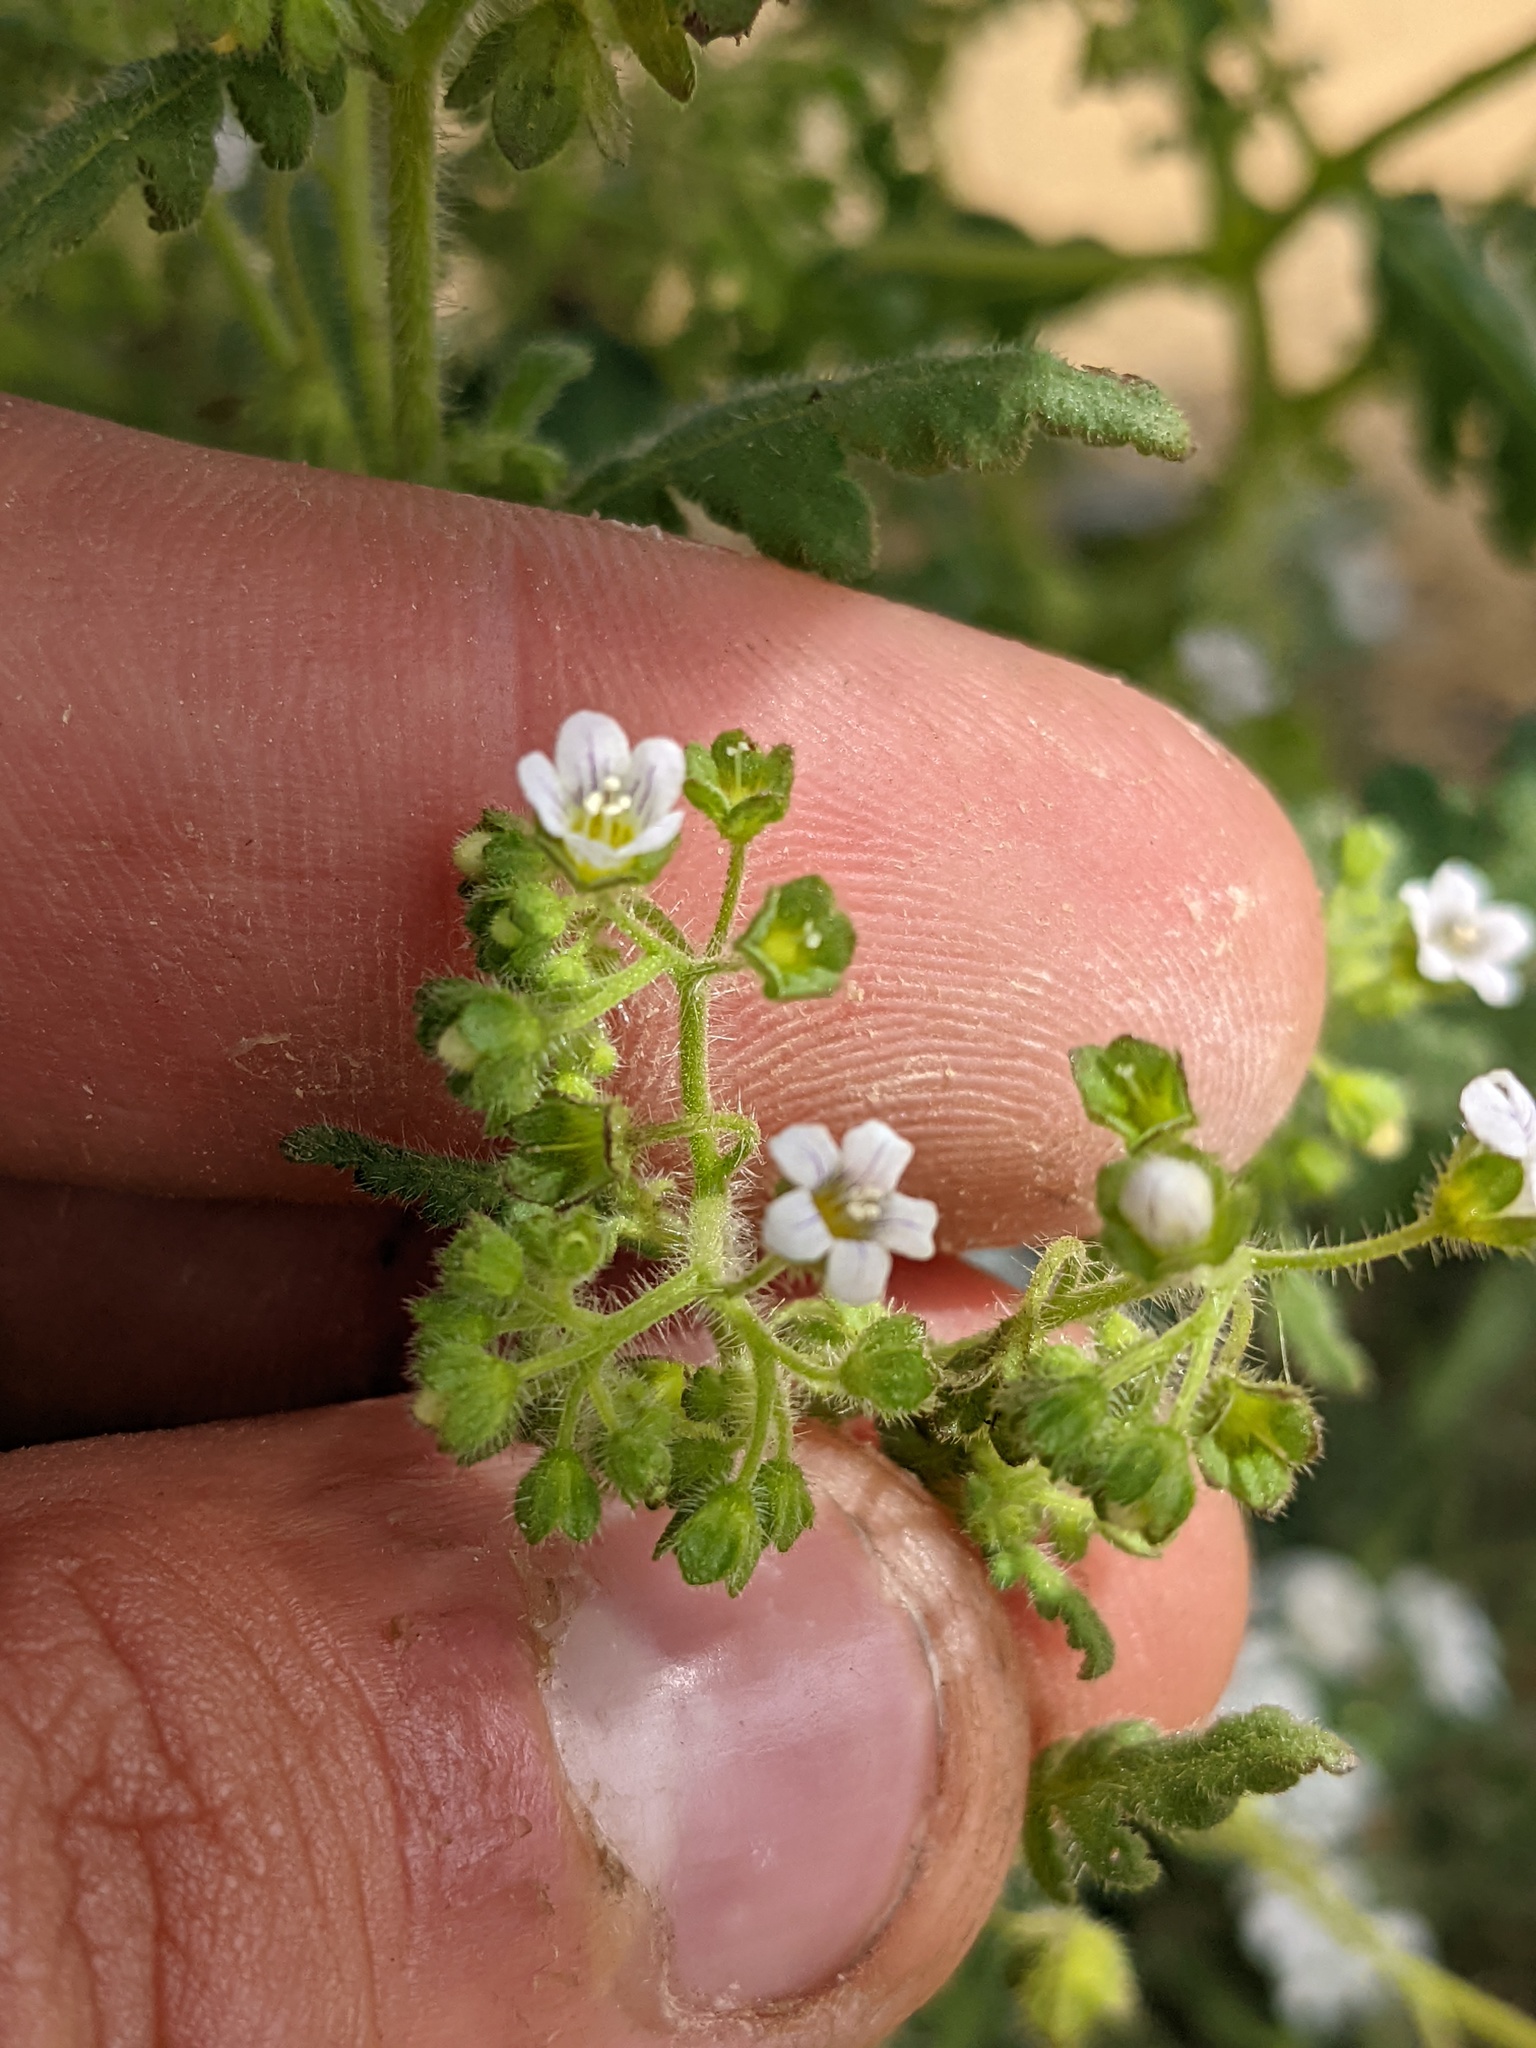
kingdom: Plantae
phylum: Tracheophyta
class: Magnoliopsida
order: Boraginales
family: Hydrophyllaceae
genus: Eucrypta
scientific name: Eucrypta chrysanthemifolia
